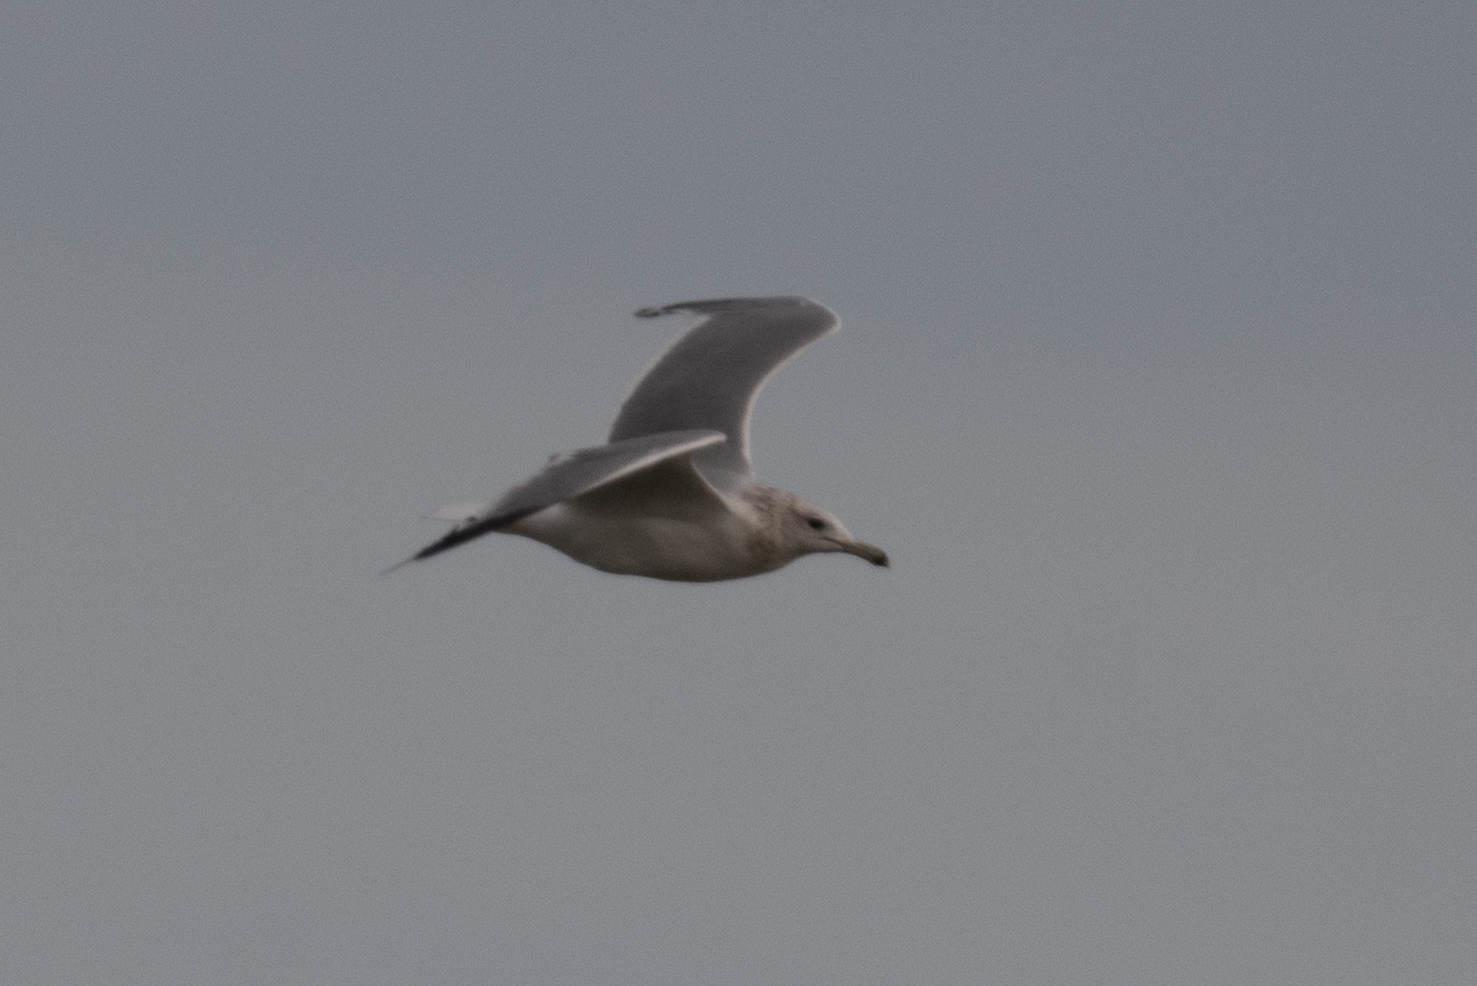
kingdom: Animalia
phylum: Chordata
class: Aves
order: Charadriiformes
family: Laridae
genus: Larus
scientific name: Larus californicus
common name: California gull
